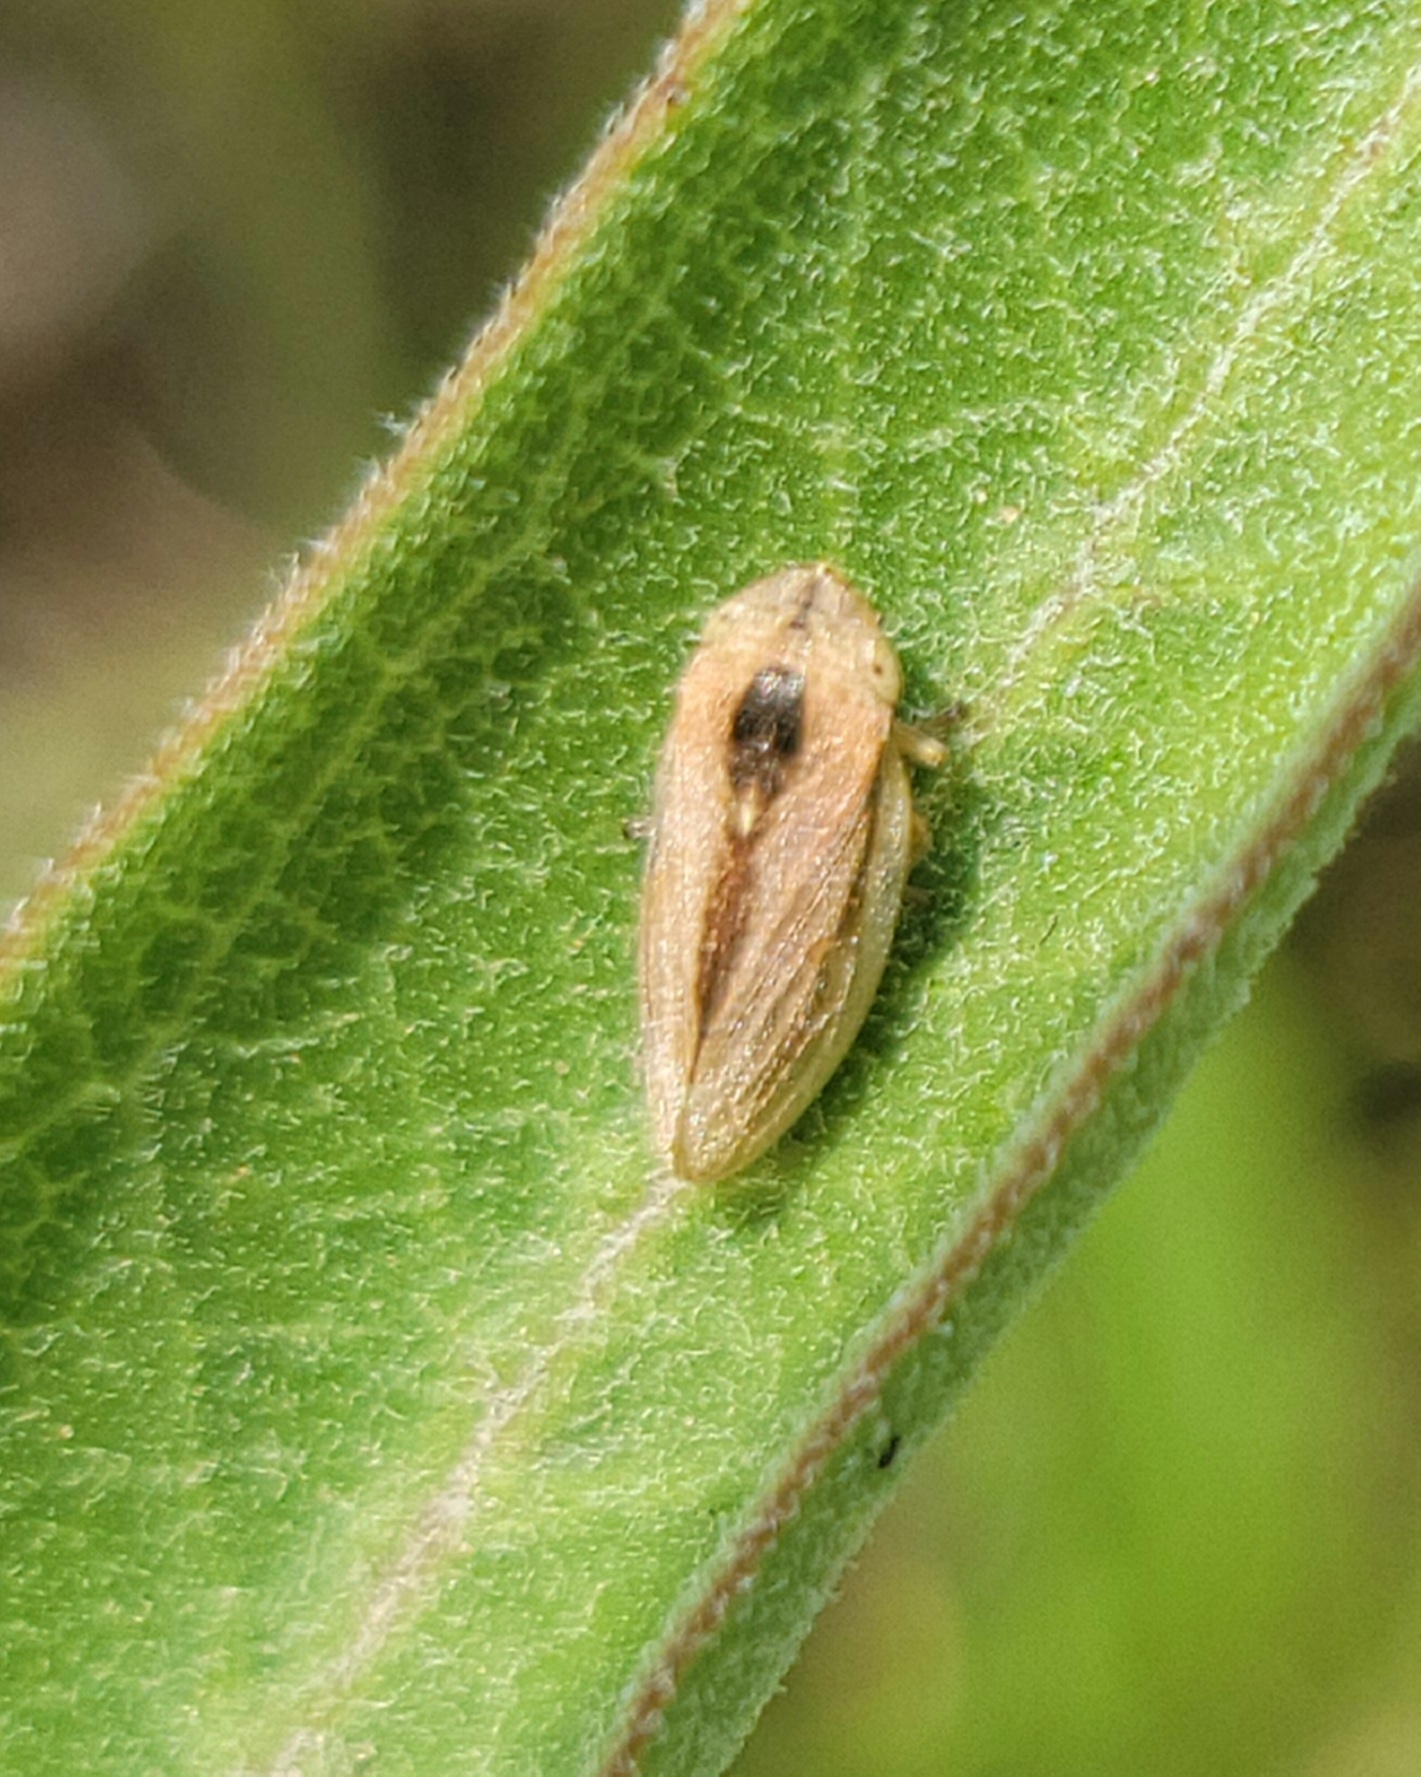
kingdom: Animalia
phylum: Arthropoda
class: Insecta
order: Hemiptera
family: Aphrophoridae
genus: Philaenus
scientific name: Philaenus spumarius
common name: Meadow spittlebug
